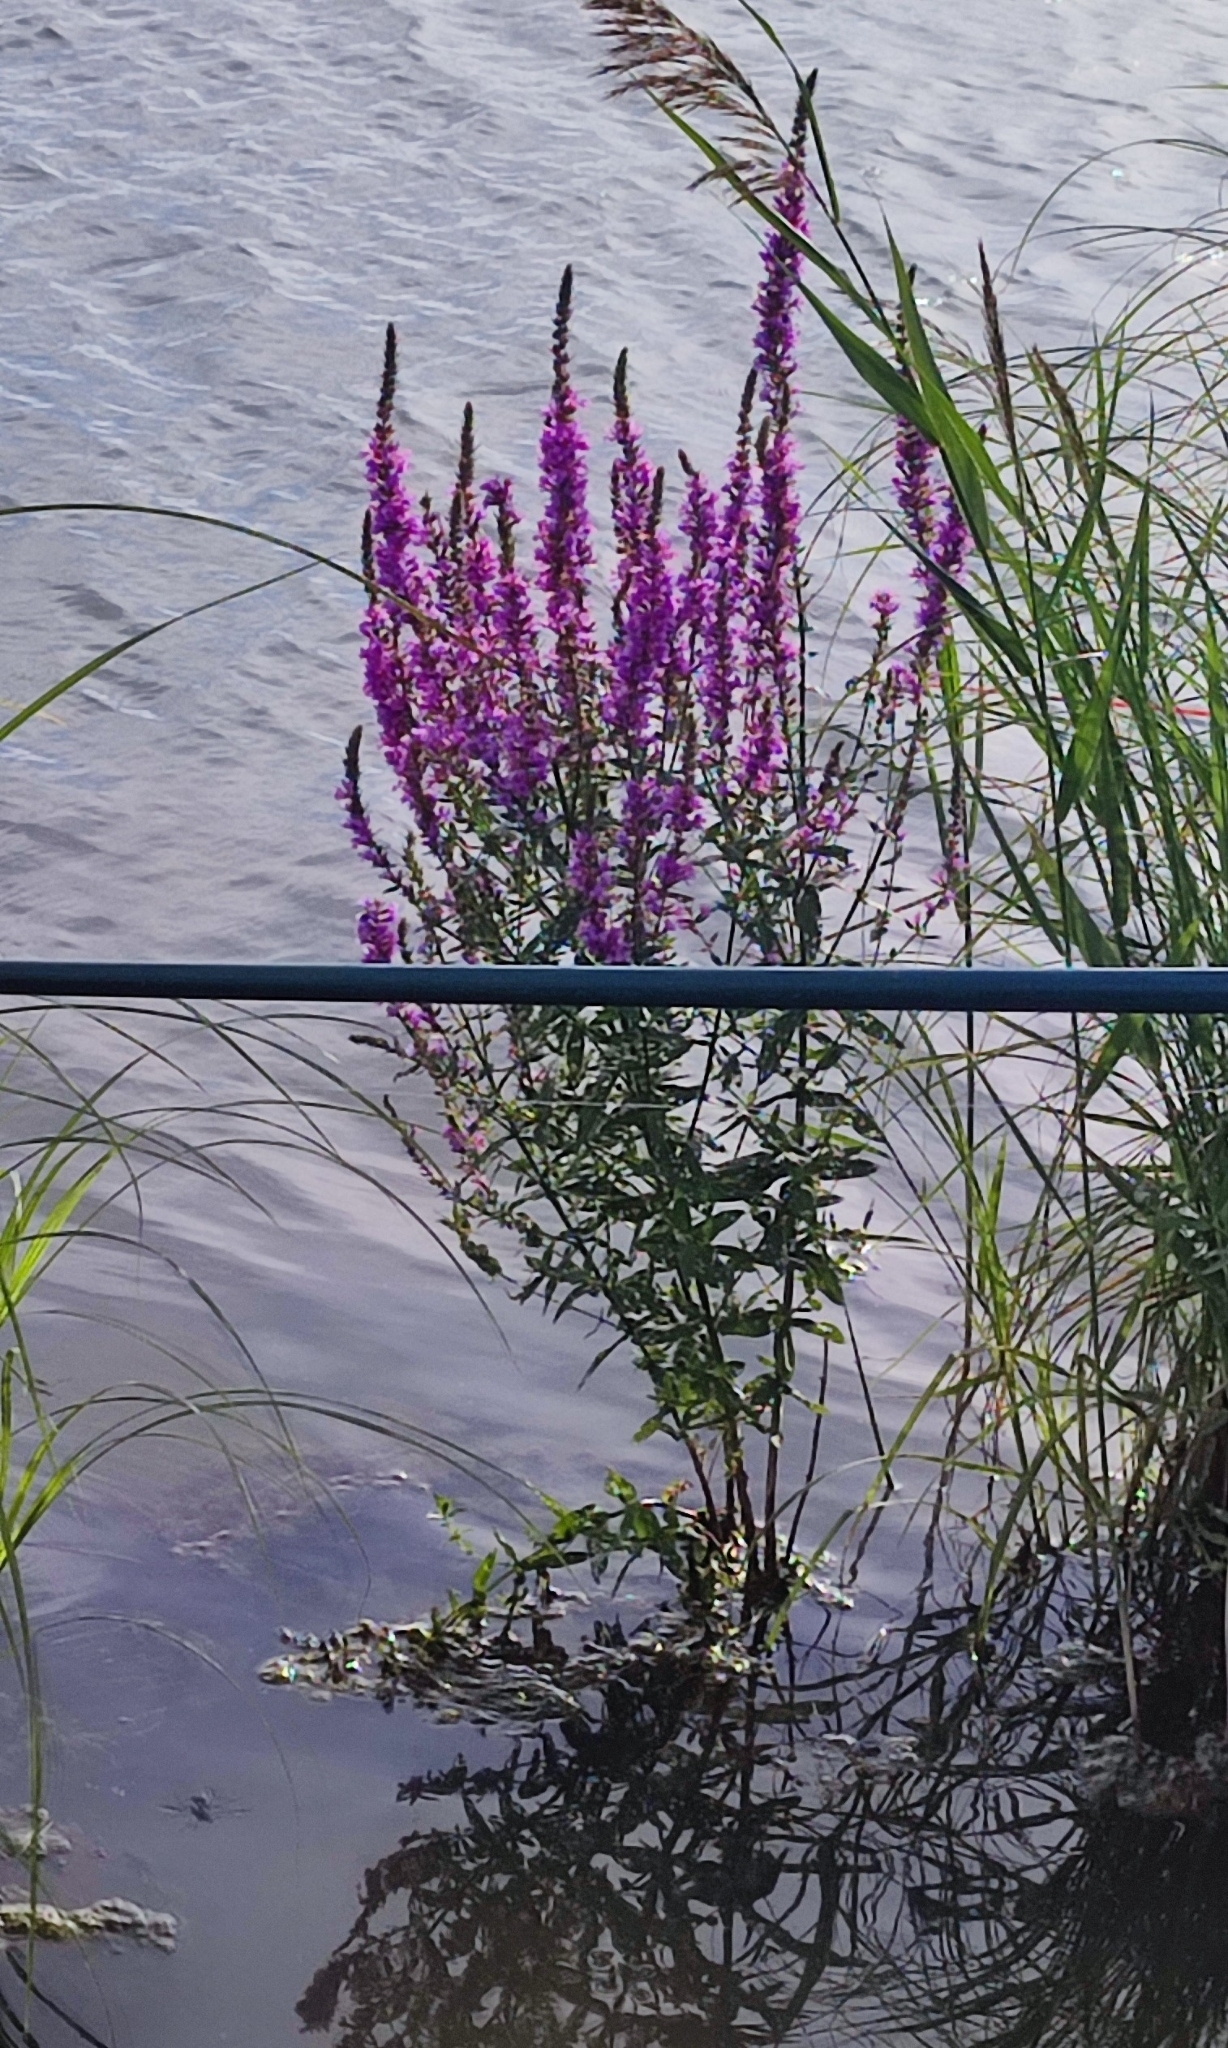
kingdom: Plantae
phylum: Tracheophyta
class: Magnoliopsida
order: Myrtales
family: Lythraceae
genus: Lythrum
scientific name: Lythrum salicaria
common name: Purple loosestrife
